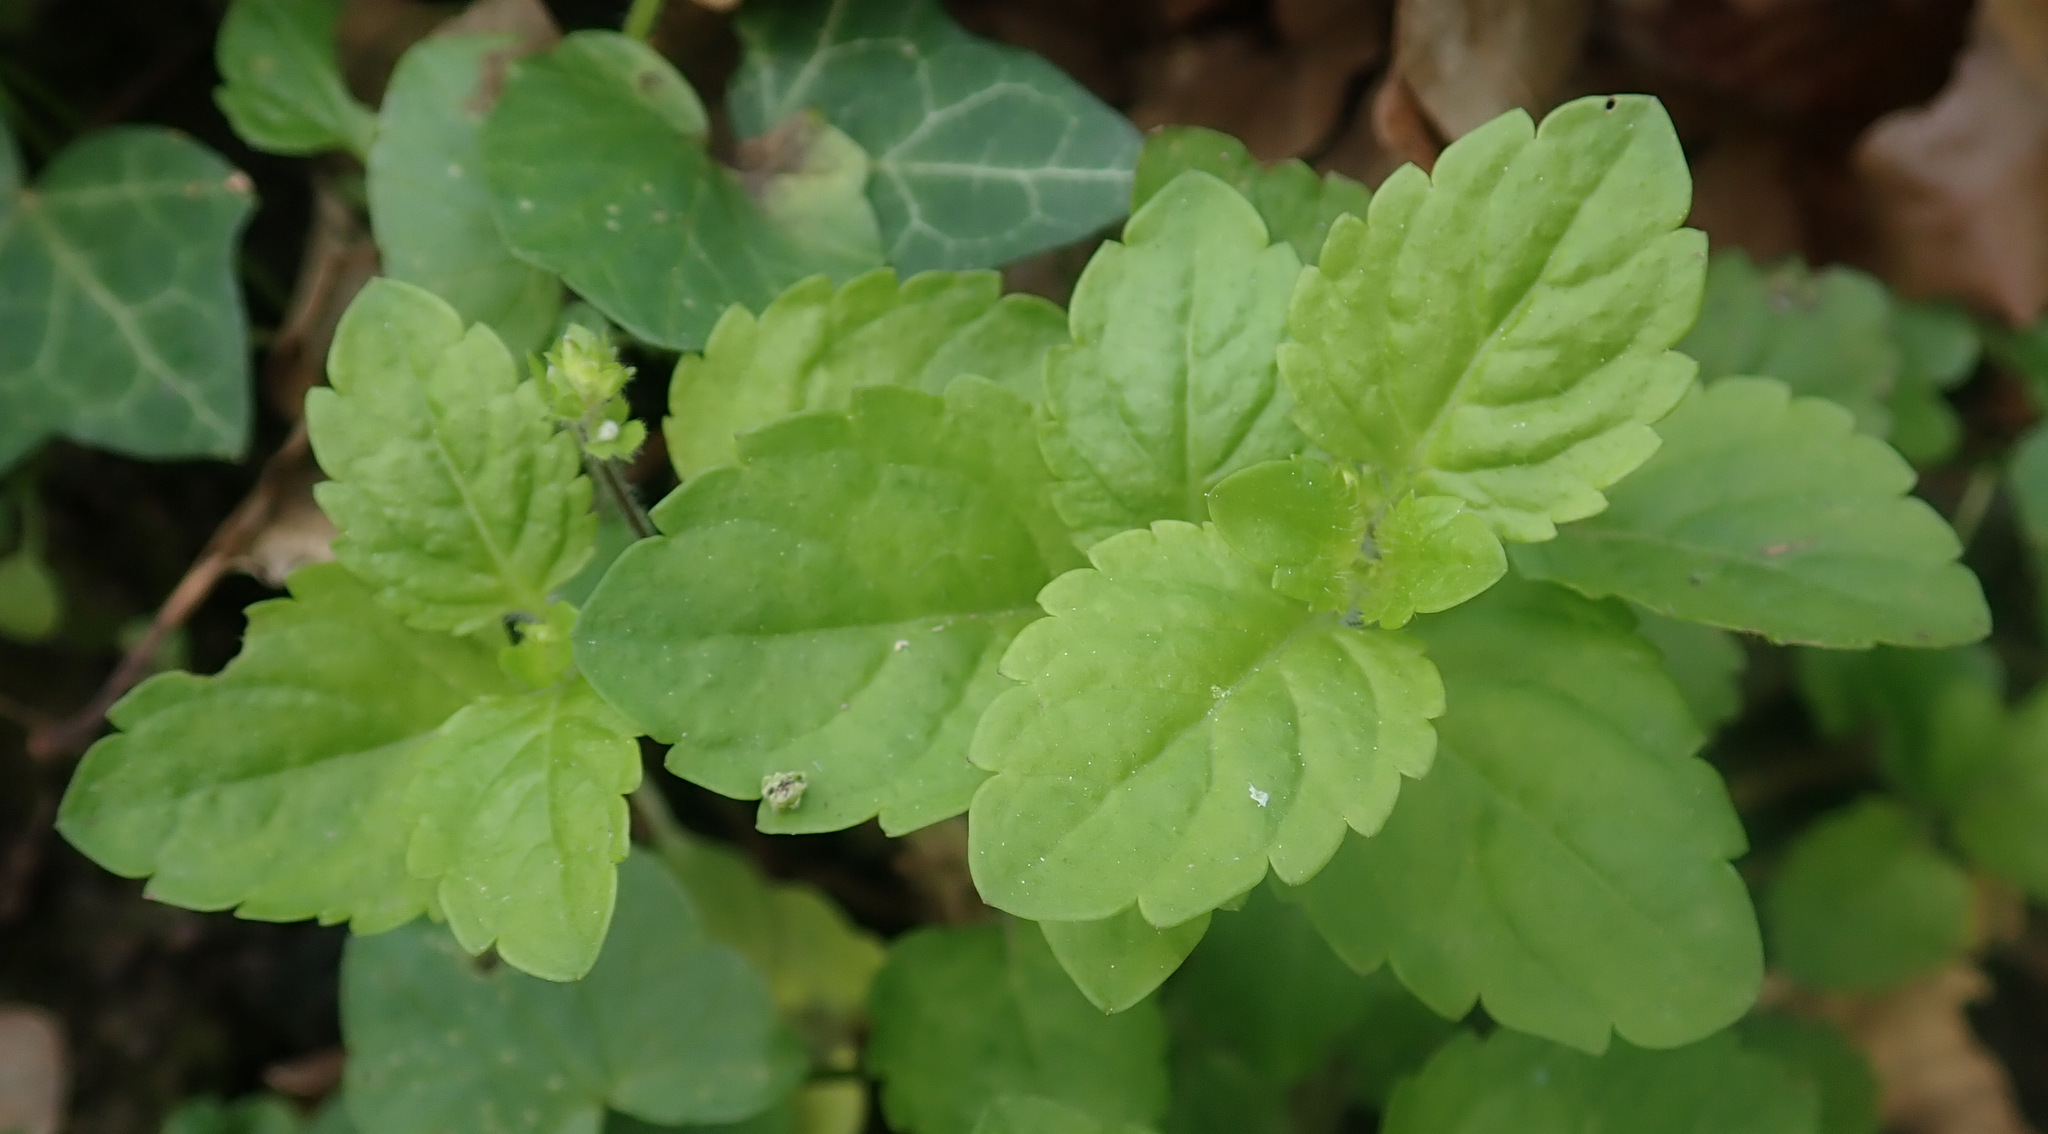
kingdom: Plantae
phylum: Tracheophyta
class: Magnoliopsida
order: Lamiales
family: Plantaginaceae
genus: Veronica
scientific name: Veronica montana
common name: Wood speedwell
